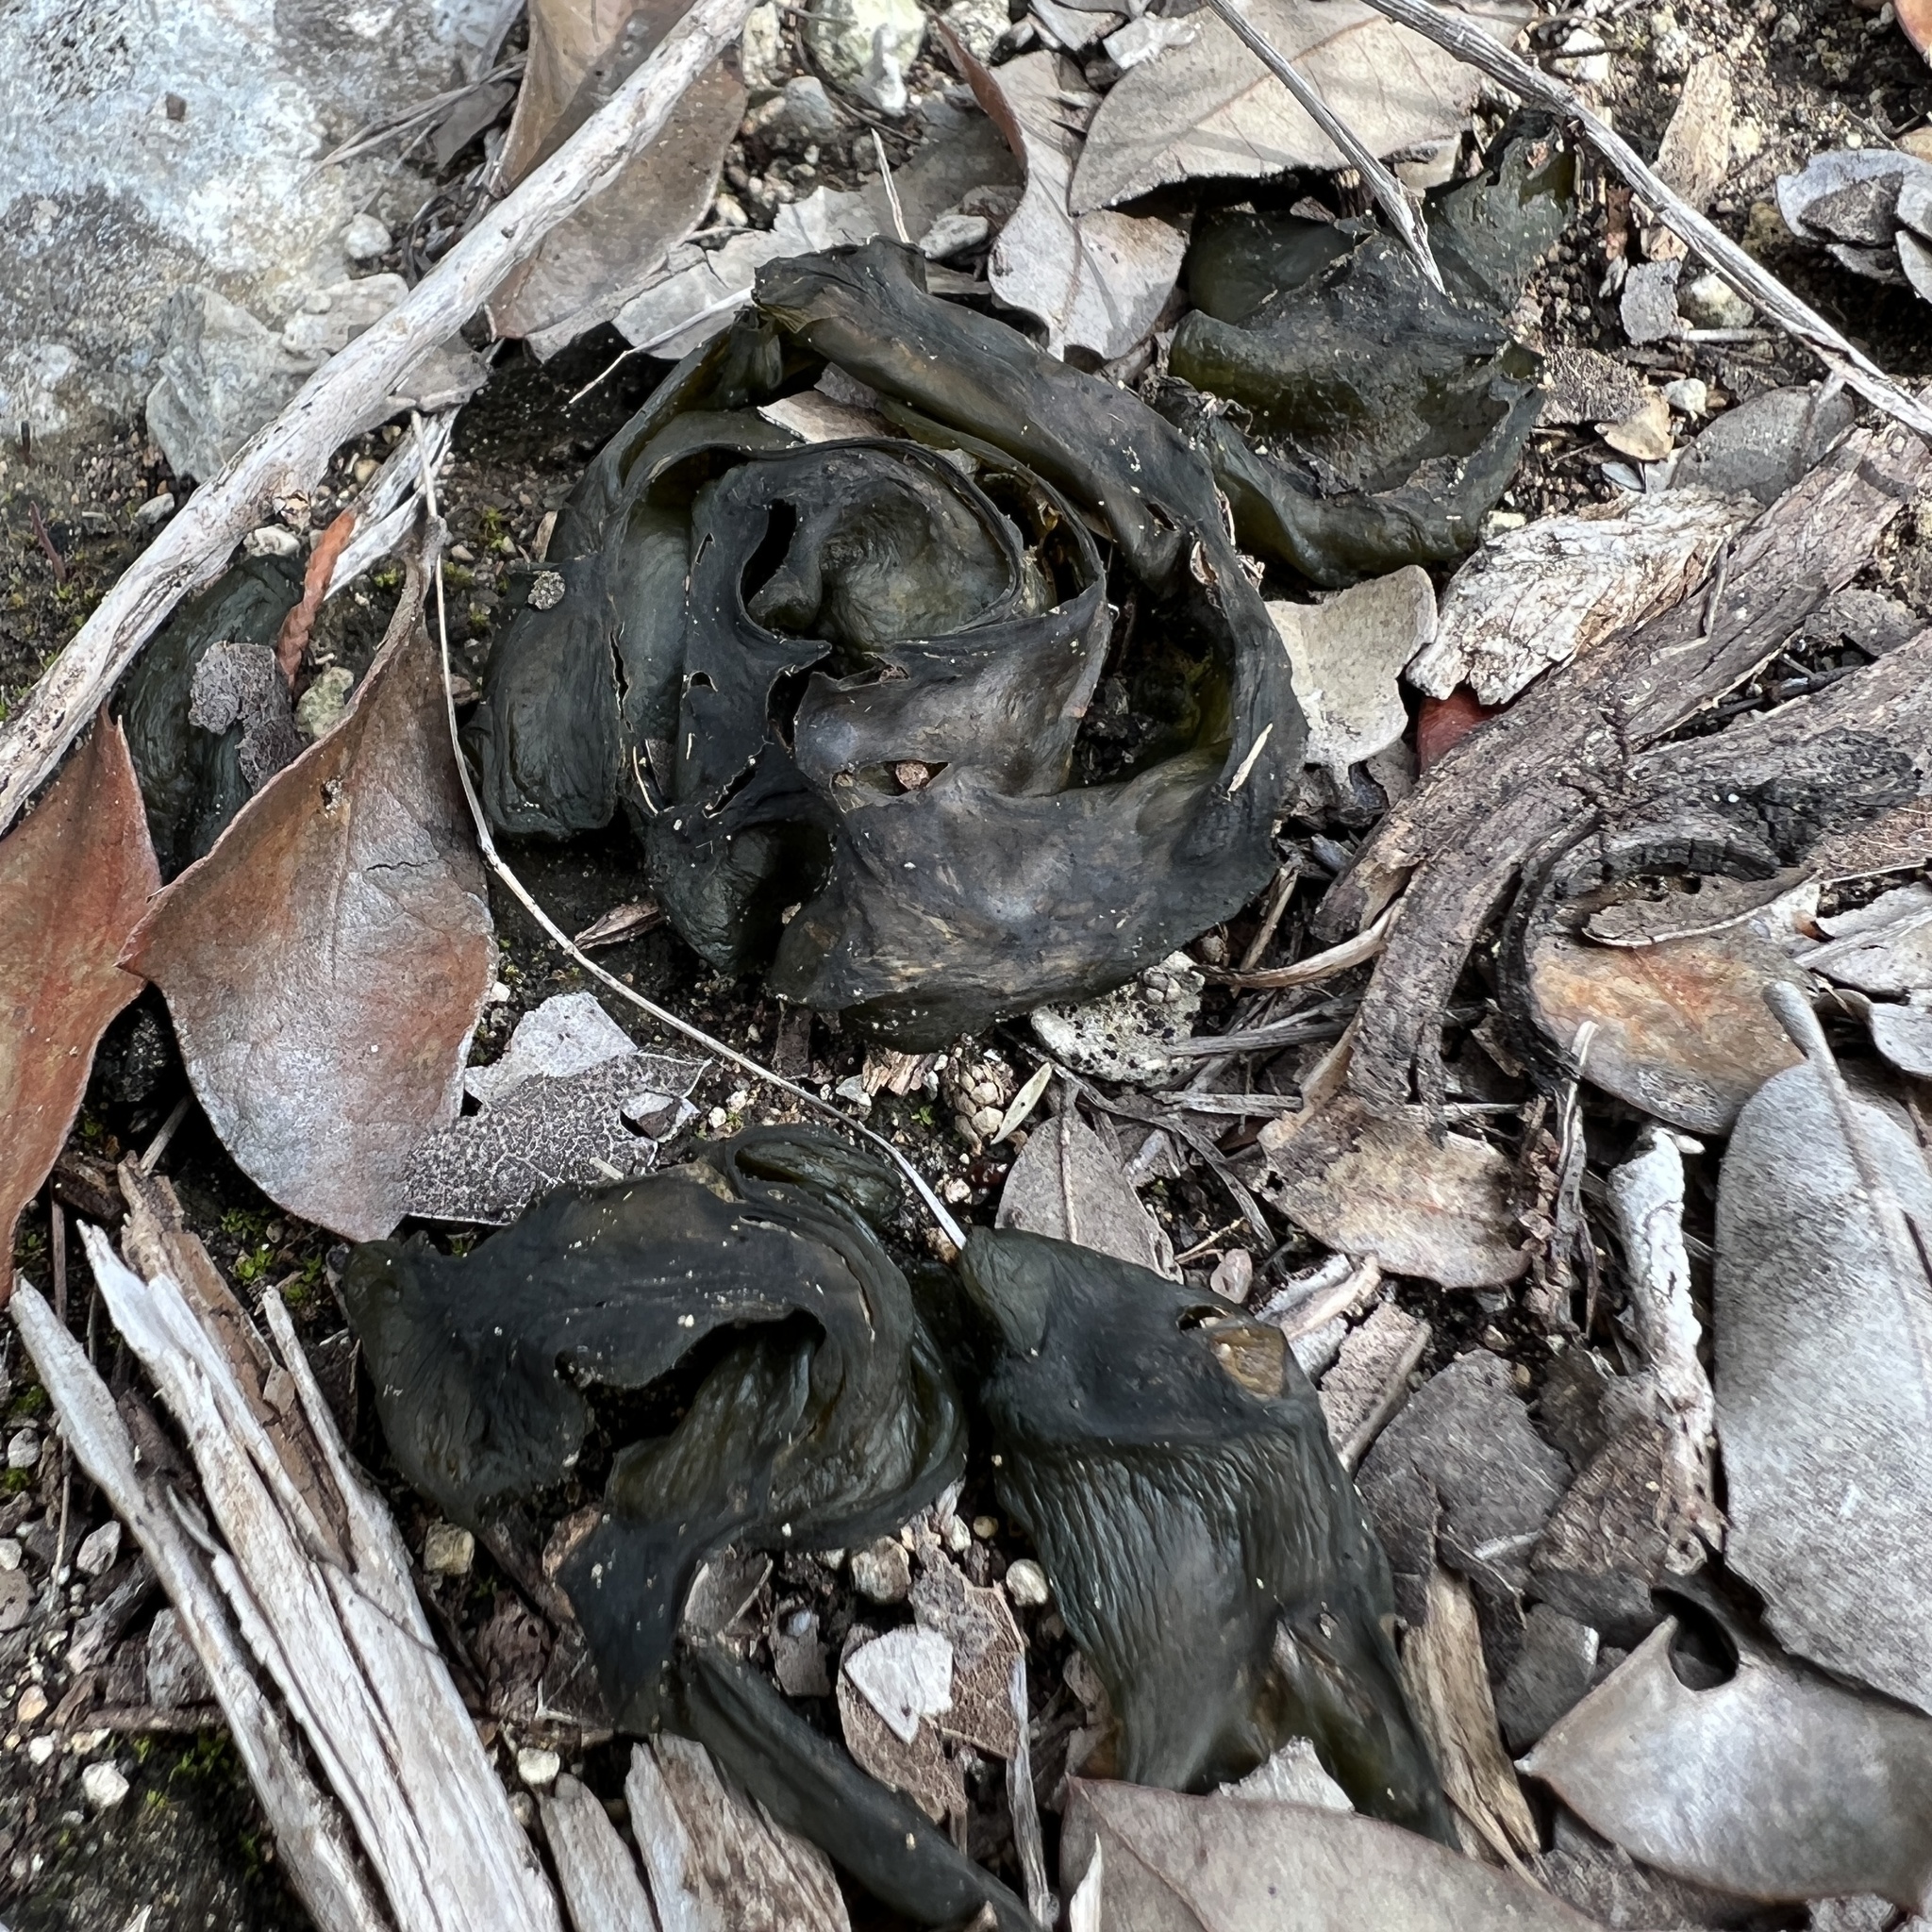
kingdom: Bacteria
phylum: Cyanobacteria
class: Cyanobacteriia
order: Cyanobacteriales
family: Nostocaceae
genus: Nostoc
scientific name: Nostoc commune
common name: Star jelly
